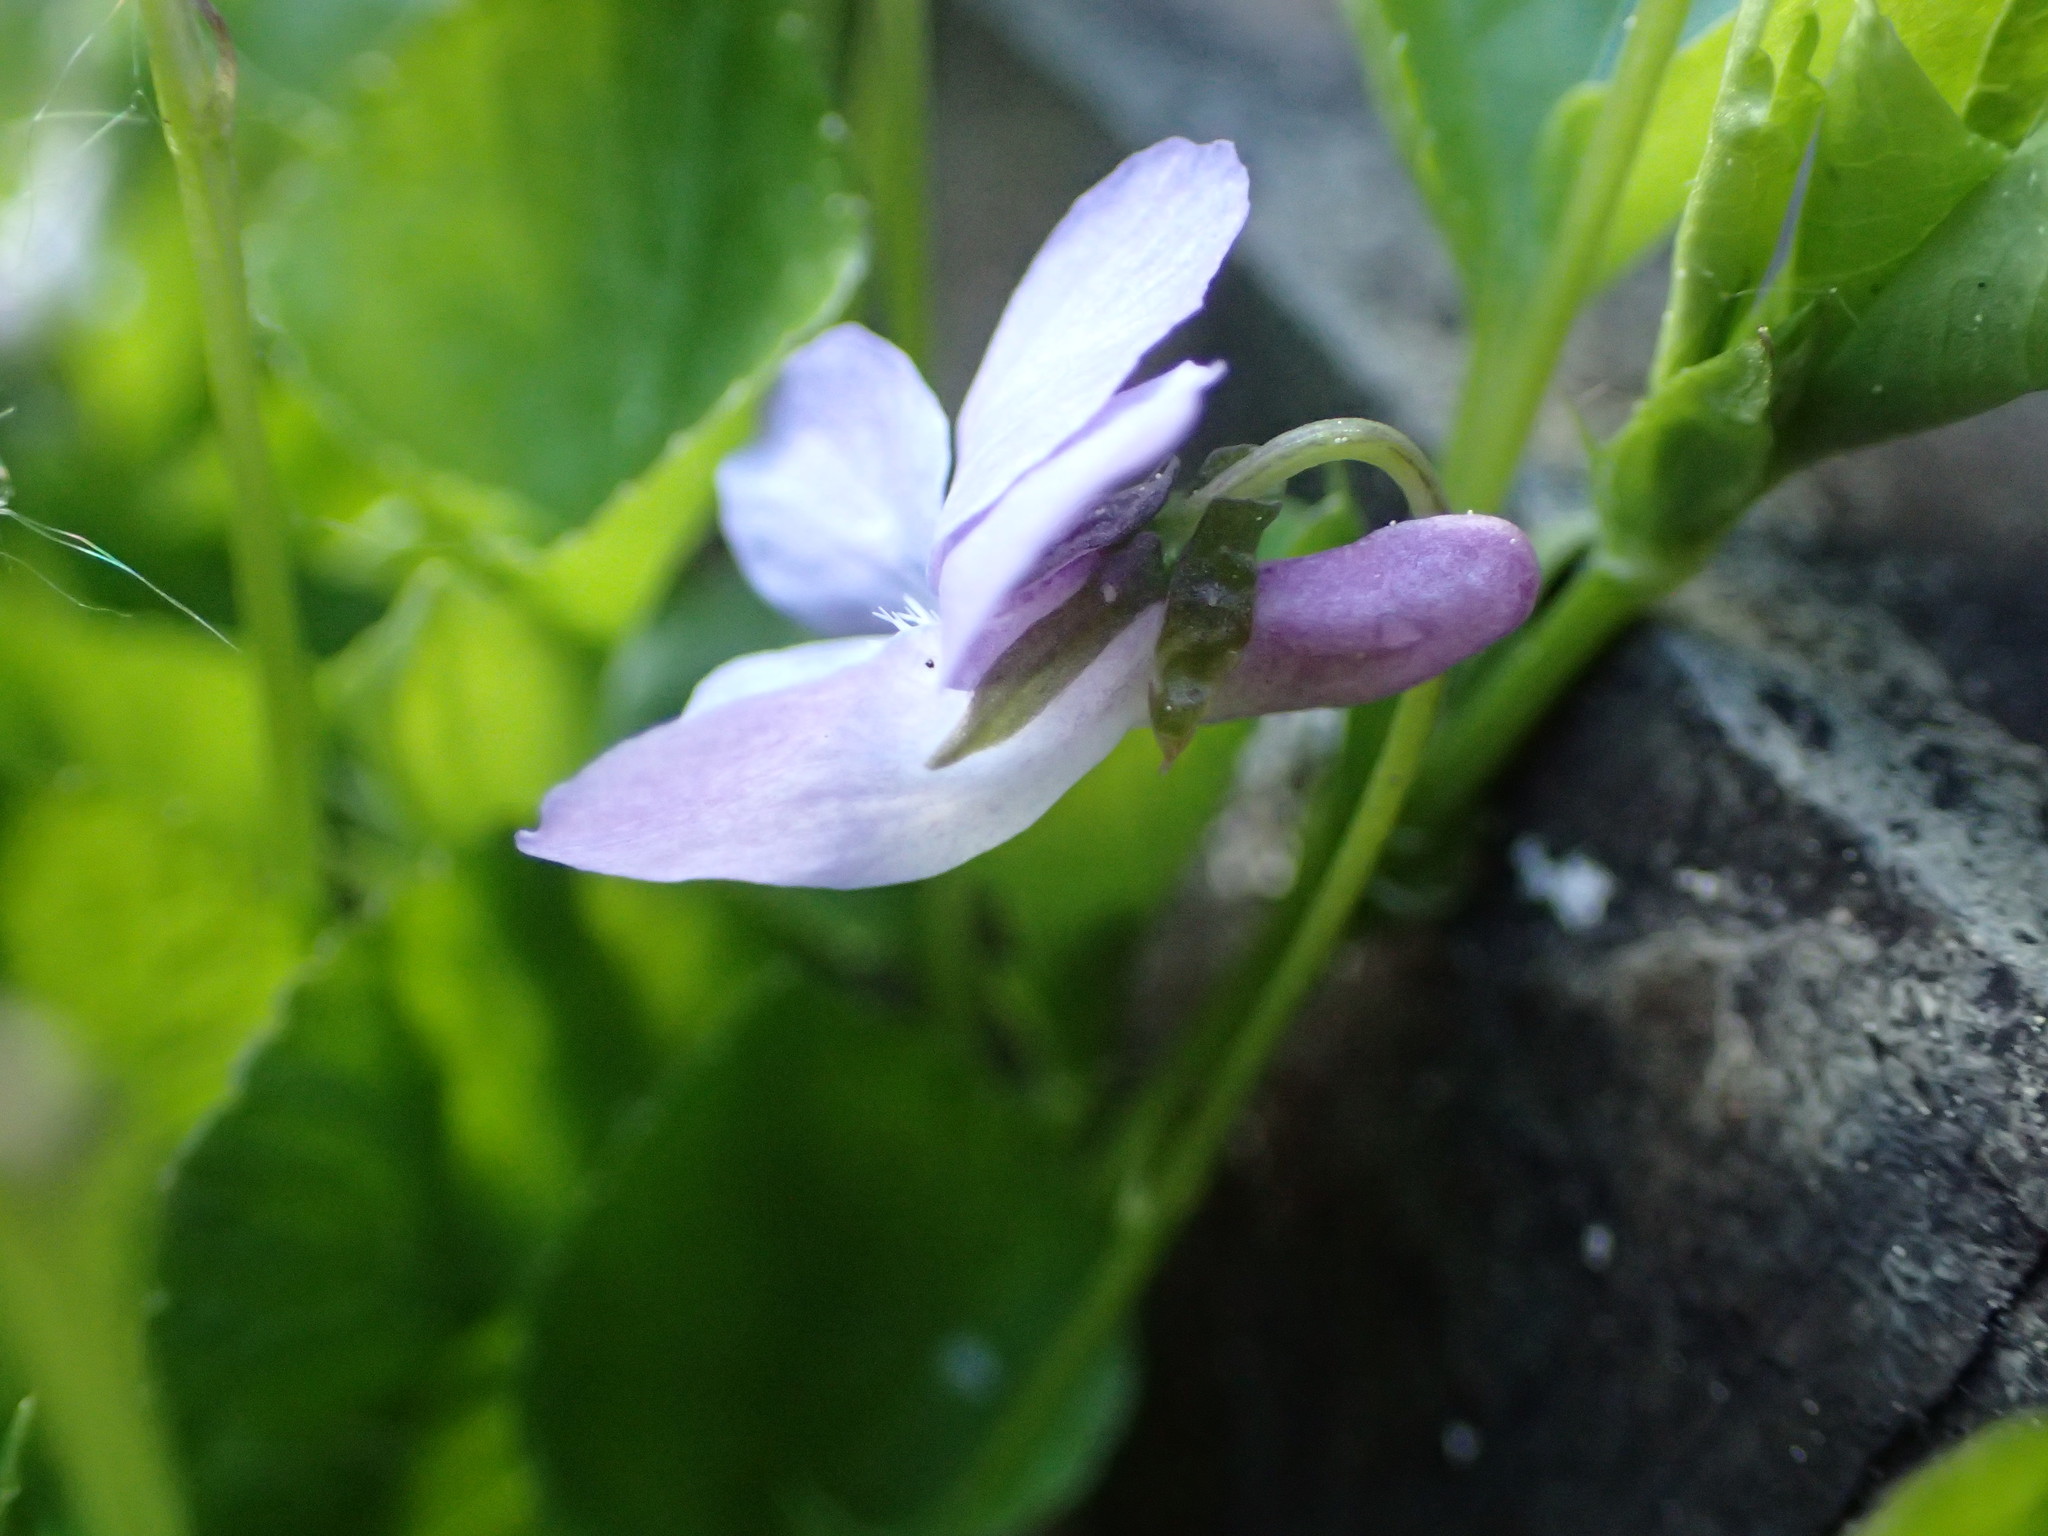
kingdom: Plantae
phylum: Tracheophyta
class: Magnoliopsida
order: Malpighiales
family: Violaceae
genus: Viola
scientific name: Viola labradorica
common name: Labrador violet
